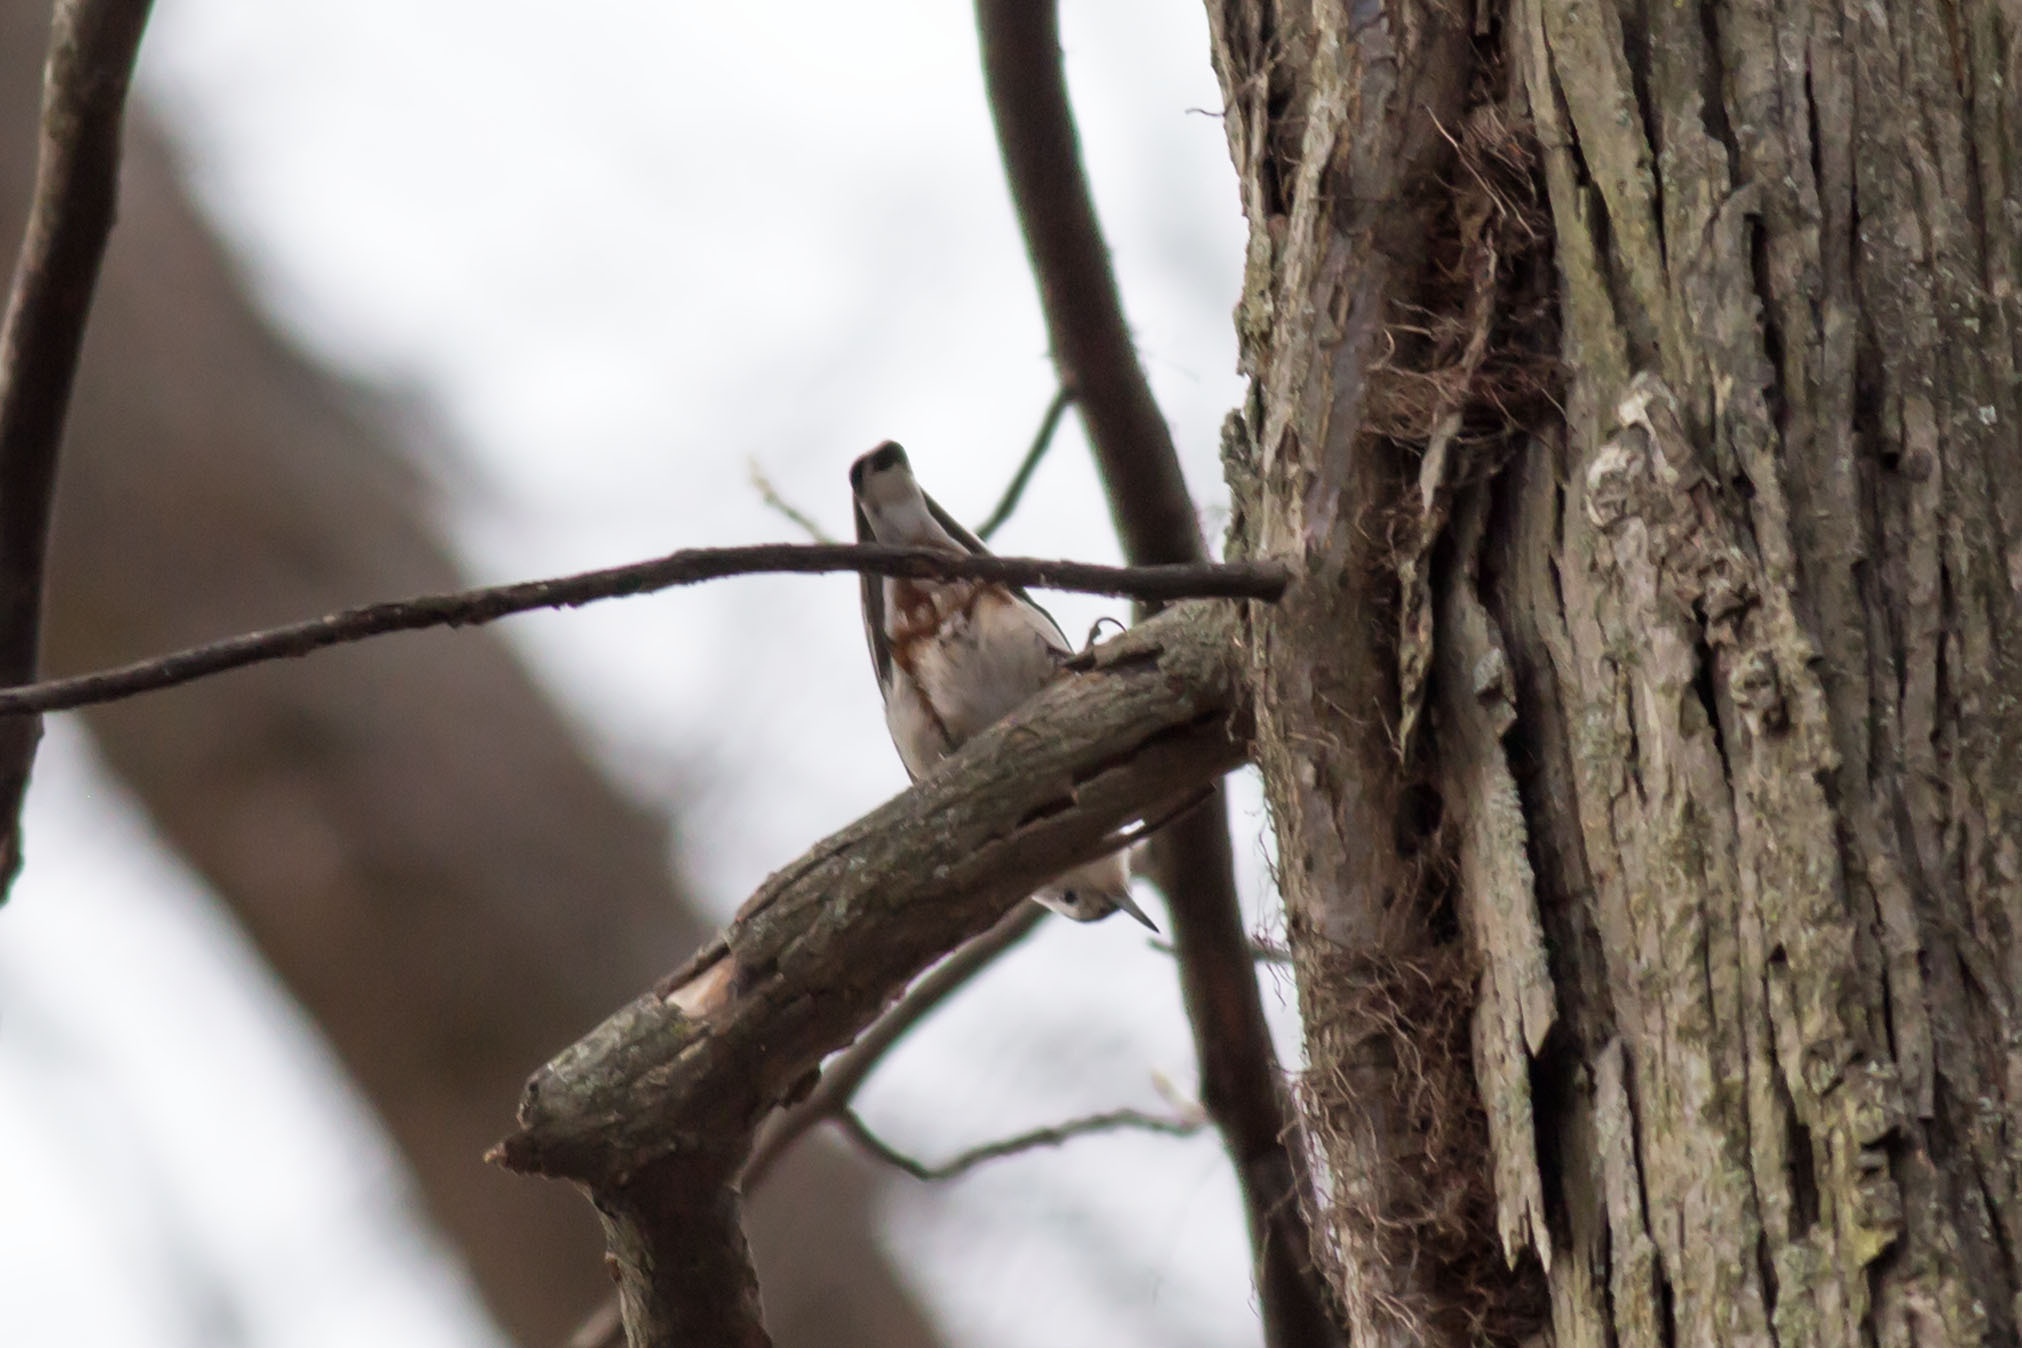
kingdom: Animalia
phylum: Chordata
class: Aves
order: Passeriformes
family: Sittidae
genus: Sitta
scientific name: Sitta carolinensis
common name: White-breasted nuthatch
